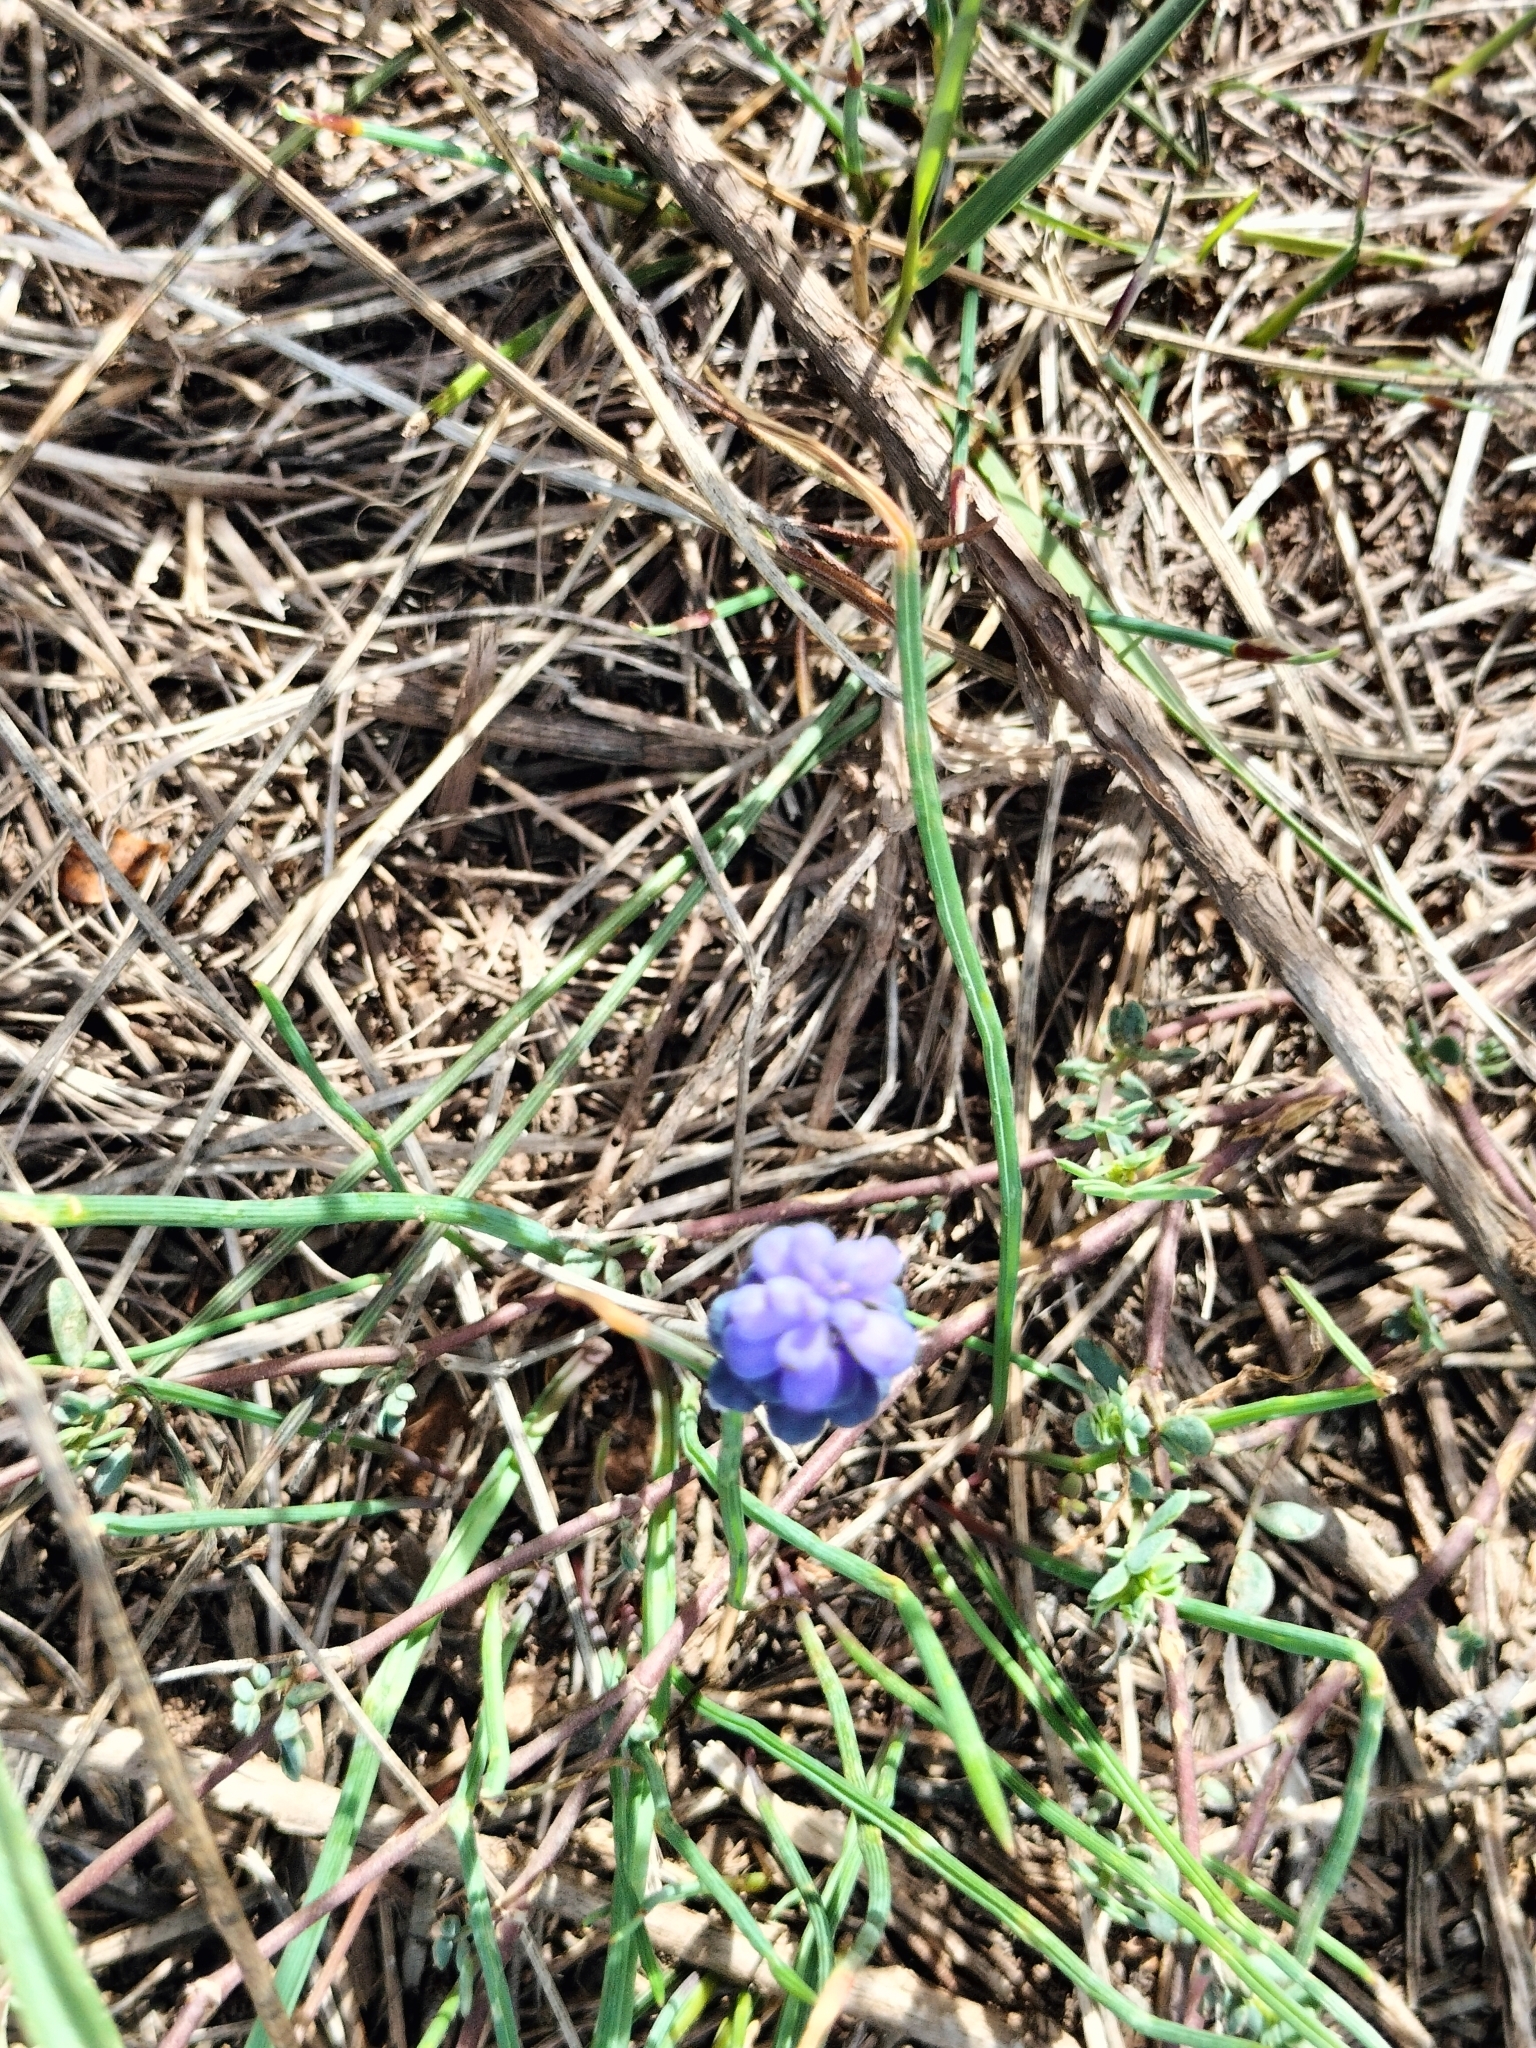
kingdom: Plantae
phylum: Tracheophyta
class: Liliopsida
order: Asparagales
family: Asparagaceae
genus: Muscari
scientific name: Muscari neglectum
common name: Grape-hyacinth
